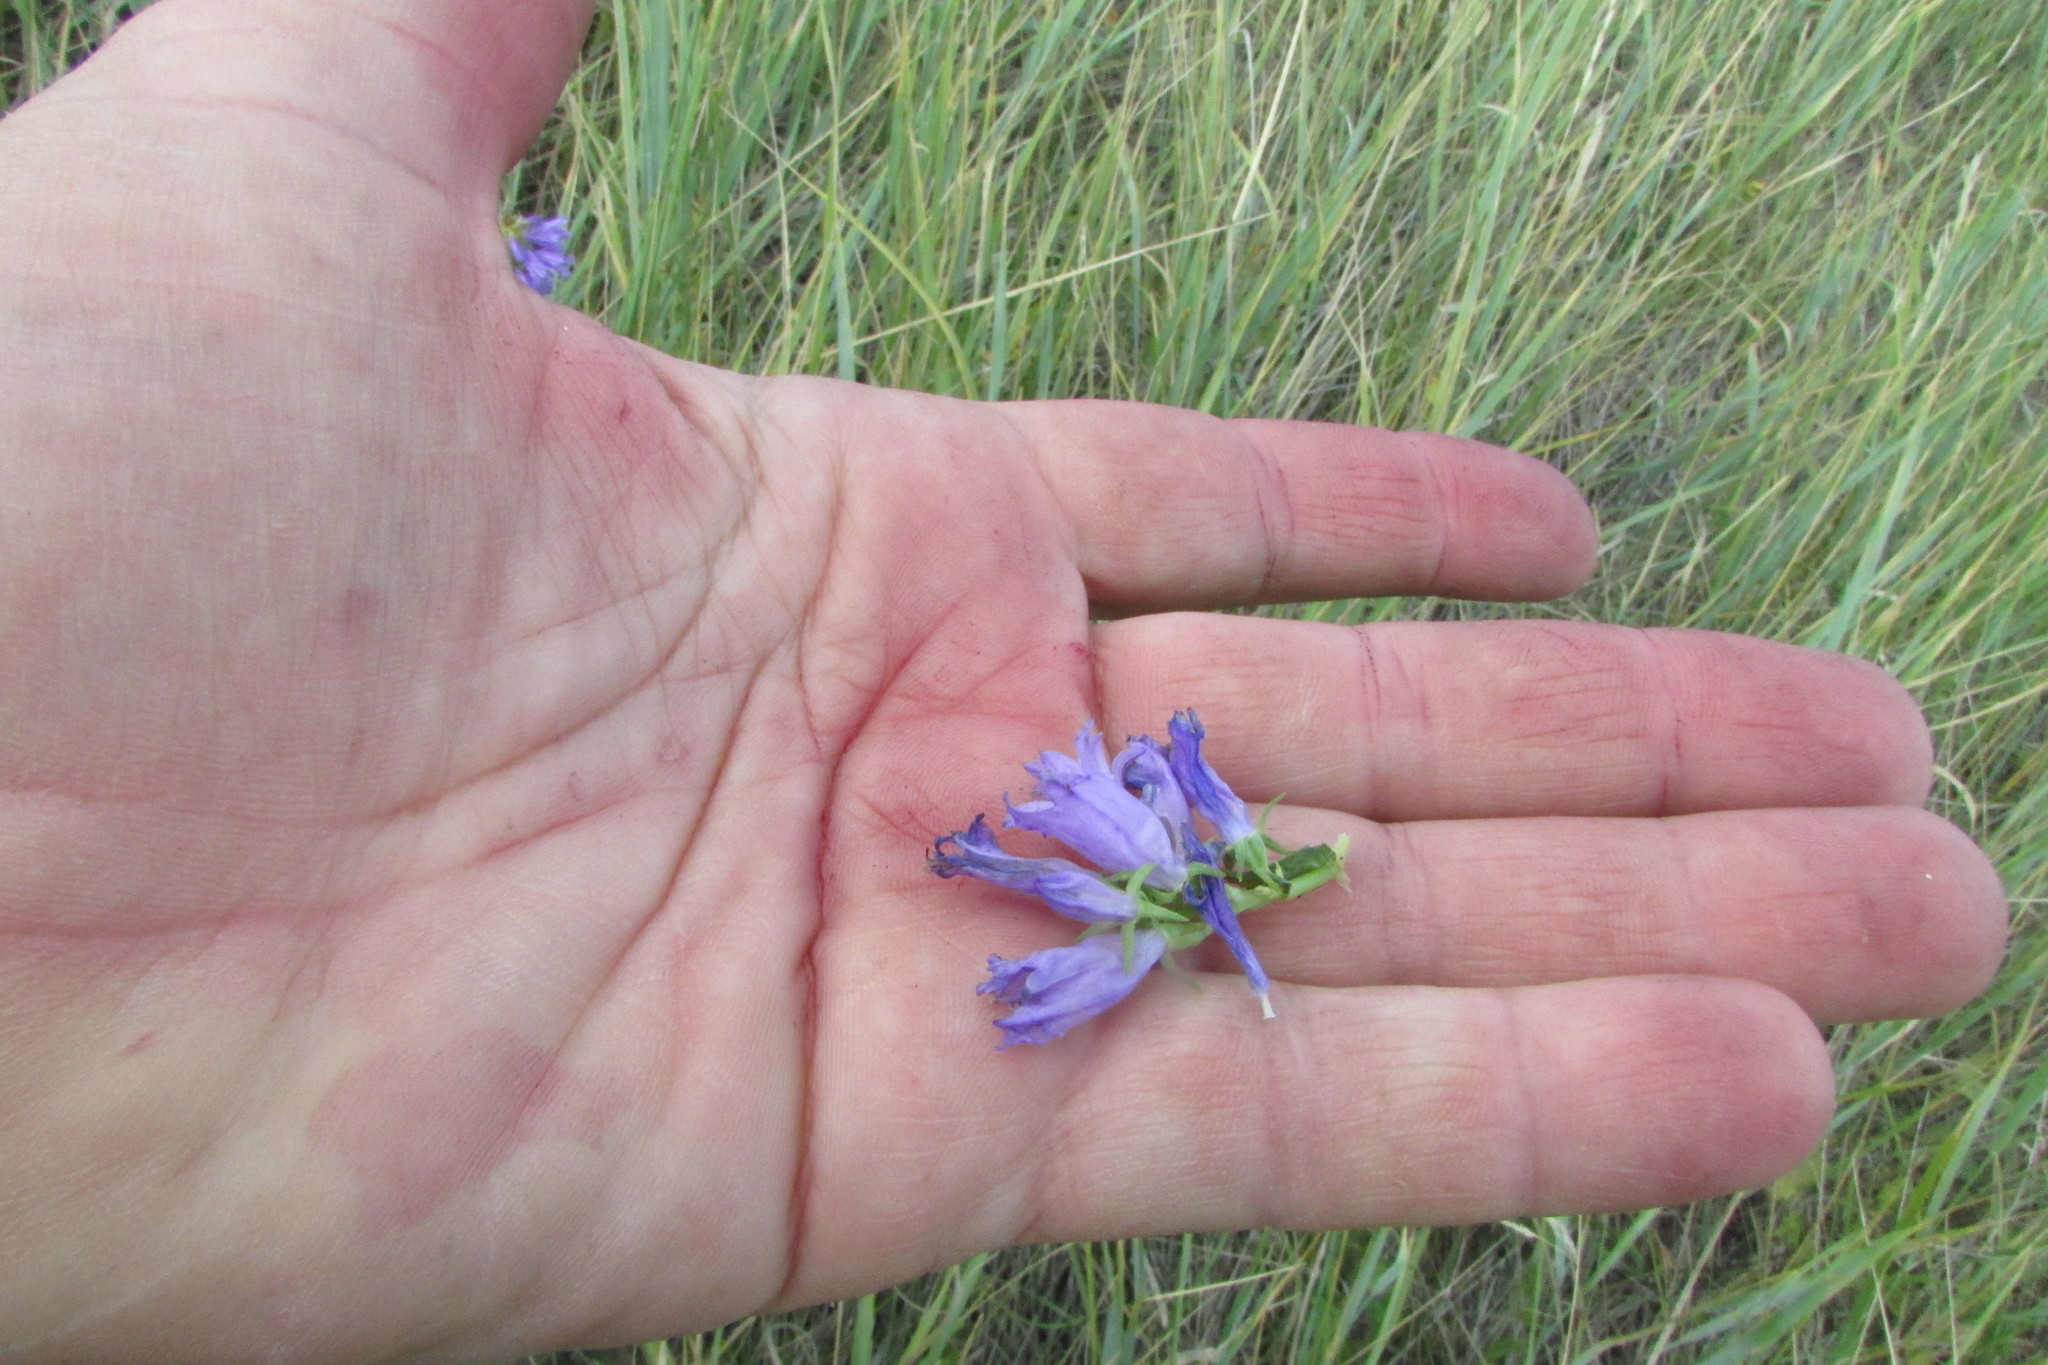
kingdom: Plantae
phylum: Tracheophyta
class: Magnoliopsida
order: Asterales
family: Campanulaceae
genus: Campanula
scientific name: Campanula bononiensis
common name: Pale bellflower
